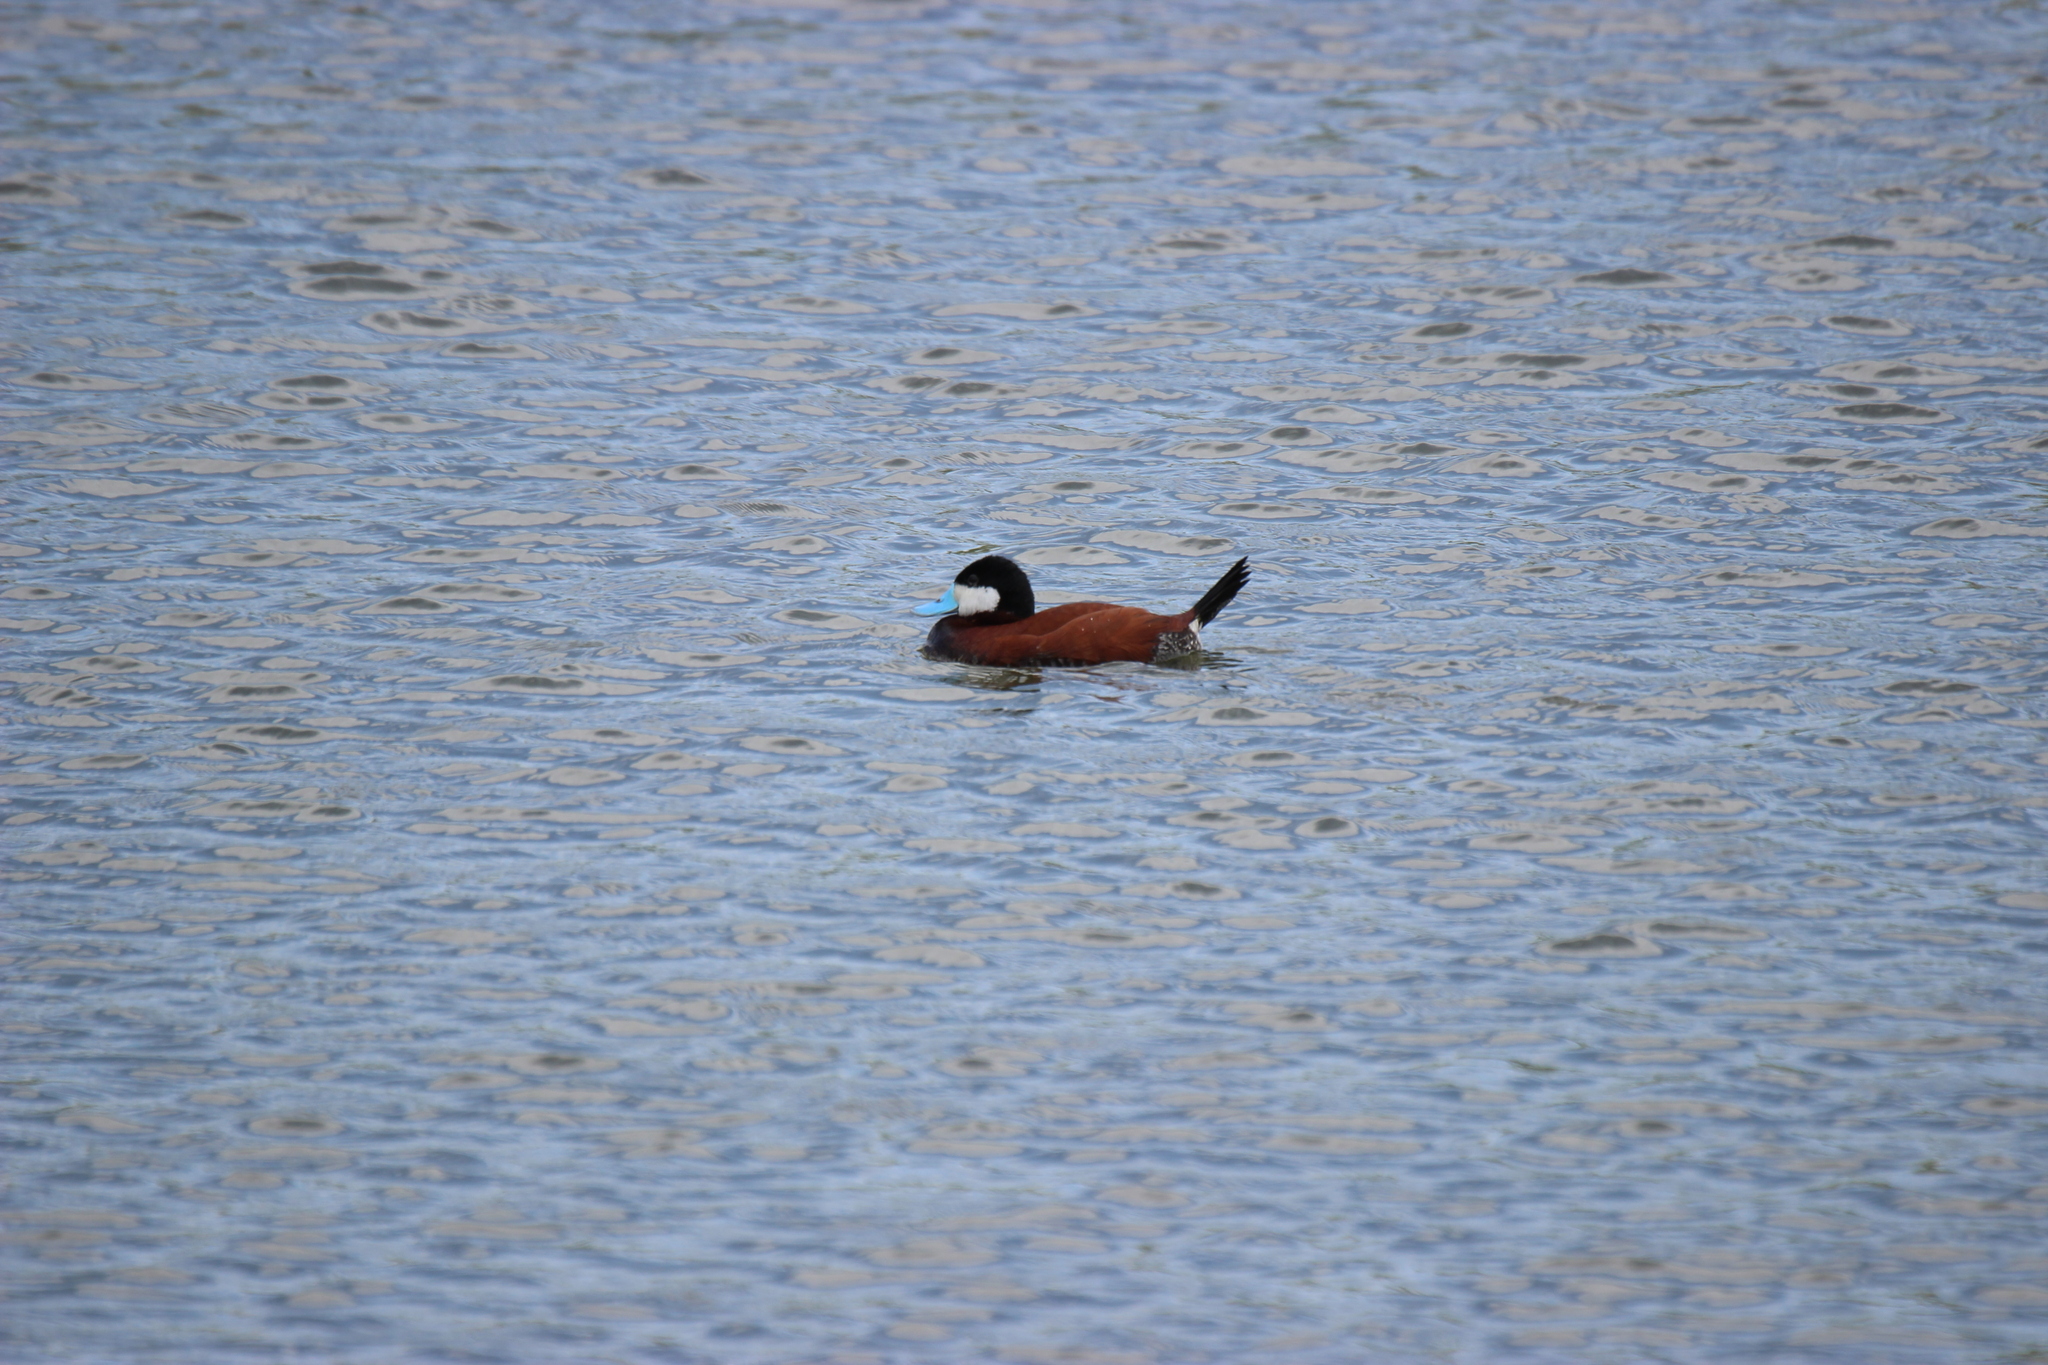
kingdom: Animalia
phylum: Chordata
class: Aves
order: Anseriformes
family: Anatidae
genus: Oxyura
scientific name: Oxyura jamaicensis
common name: Ruddy duck
